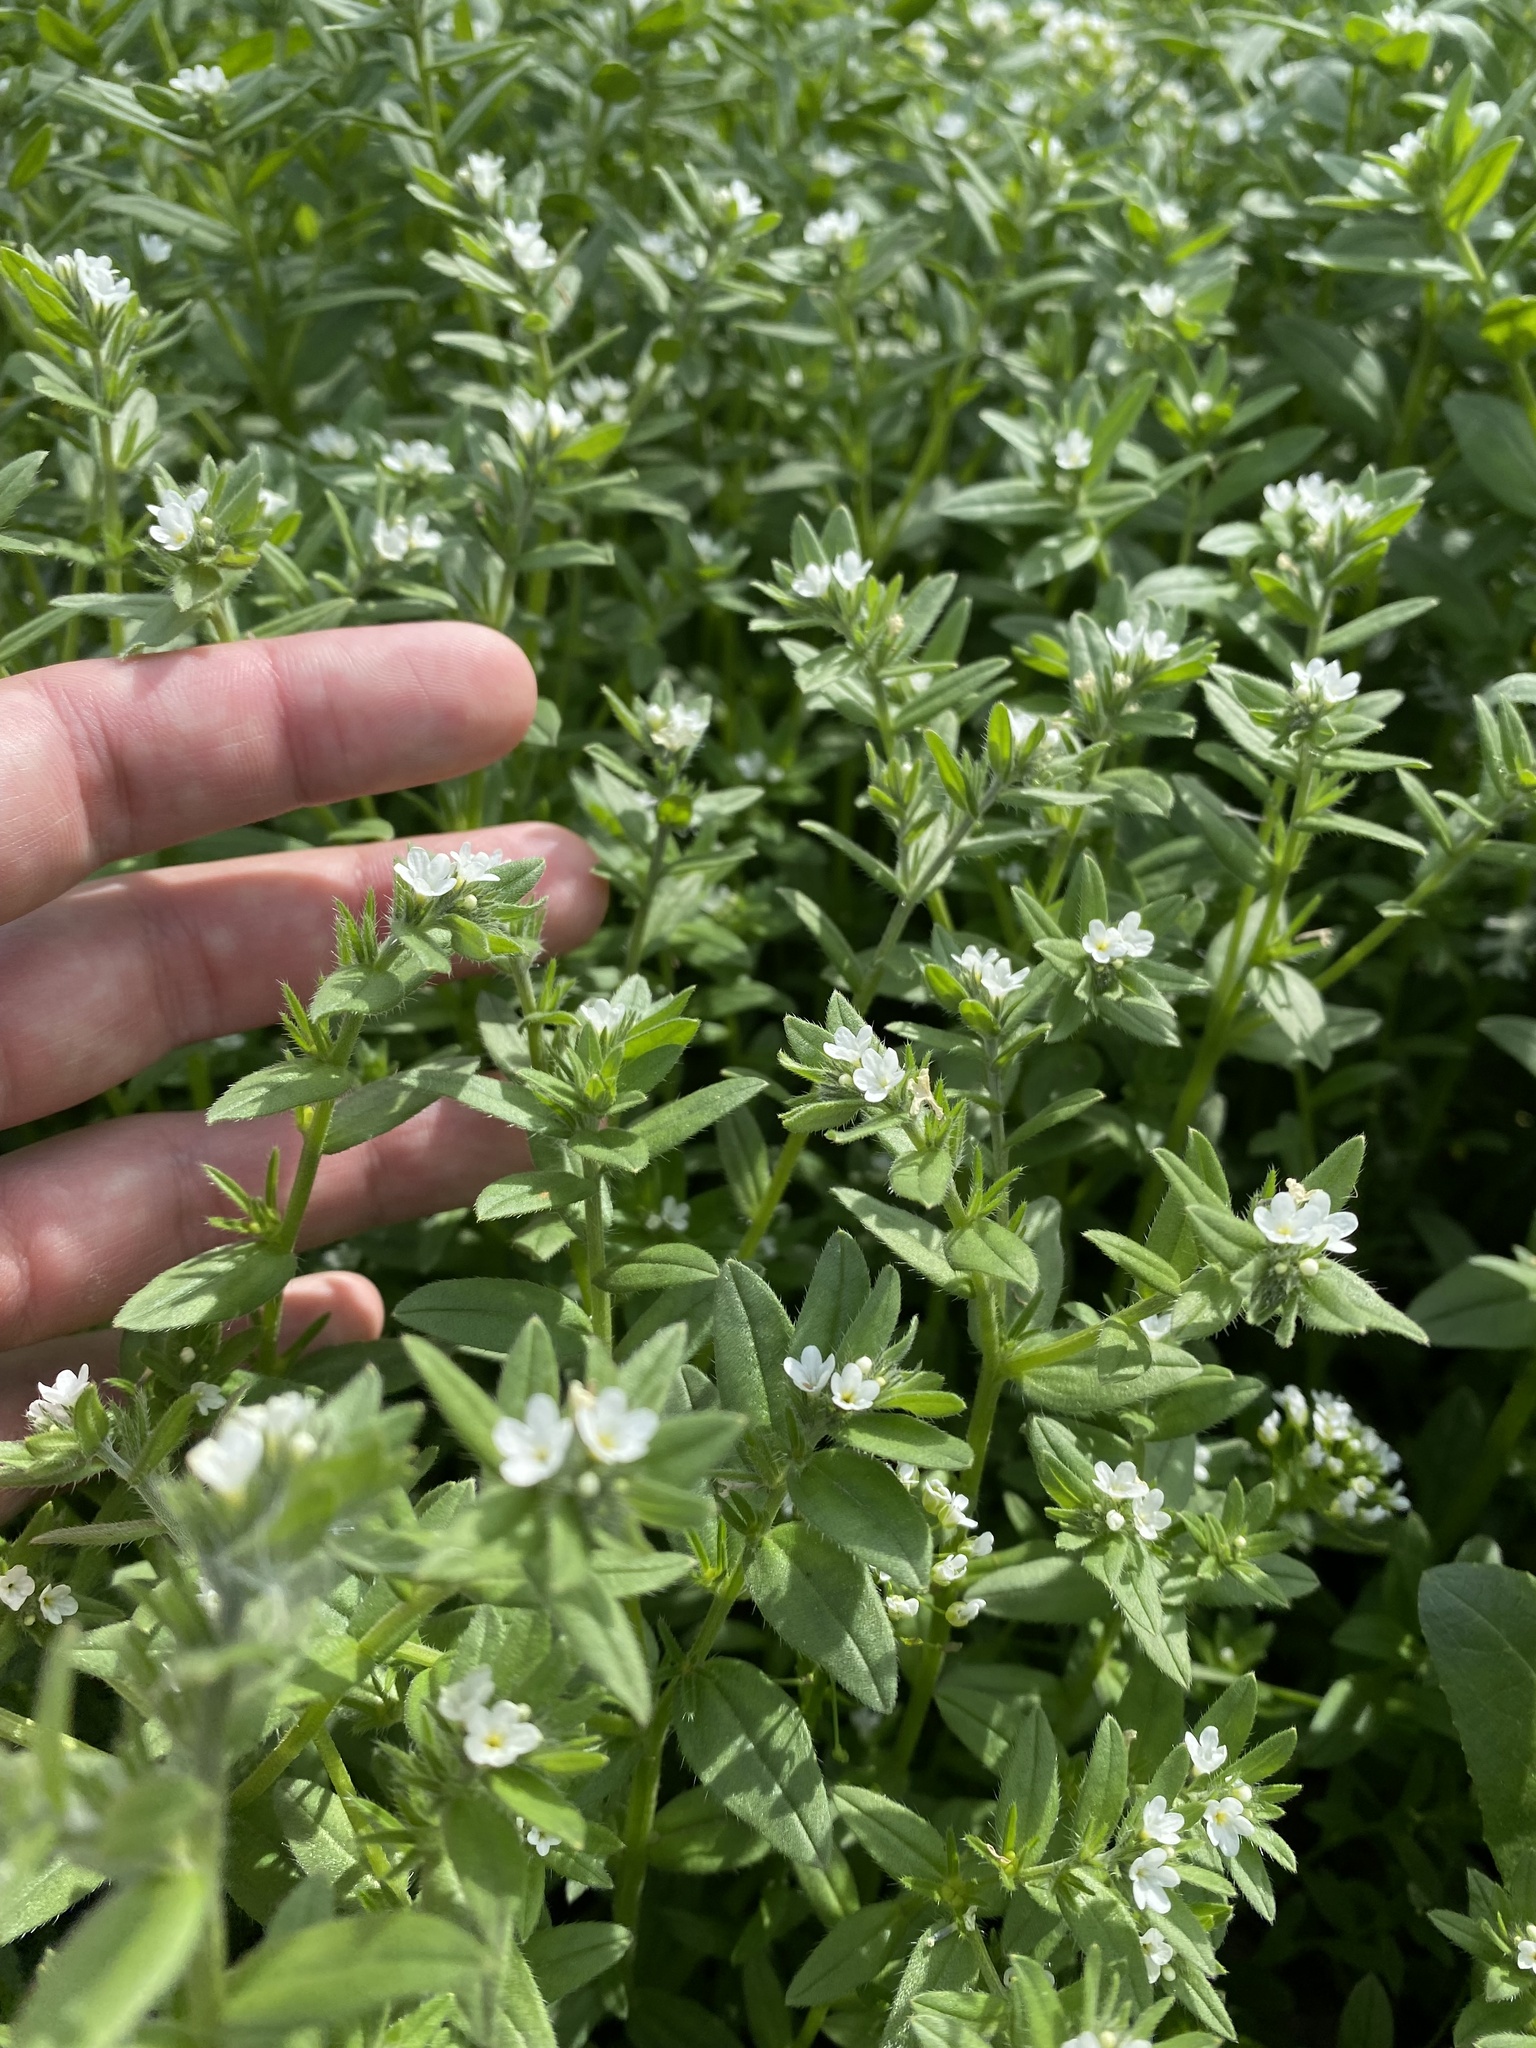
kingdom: Plantae
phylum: Tracheophyta
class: Magnoliopsida
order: Boraginales
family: Boraginaceae
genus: Buglossoides
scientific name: Buglossoides arvensis
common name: Corn gromwell
